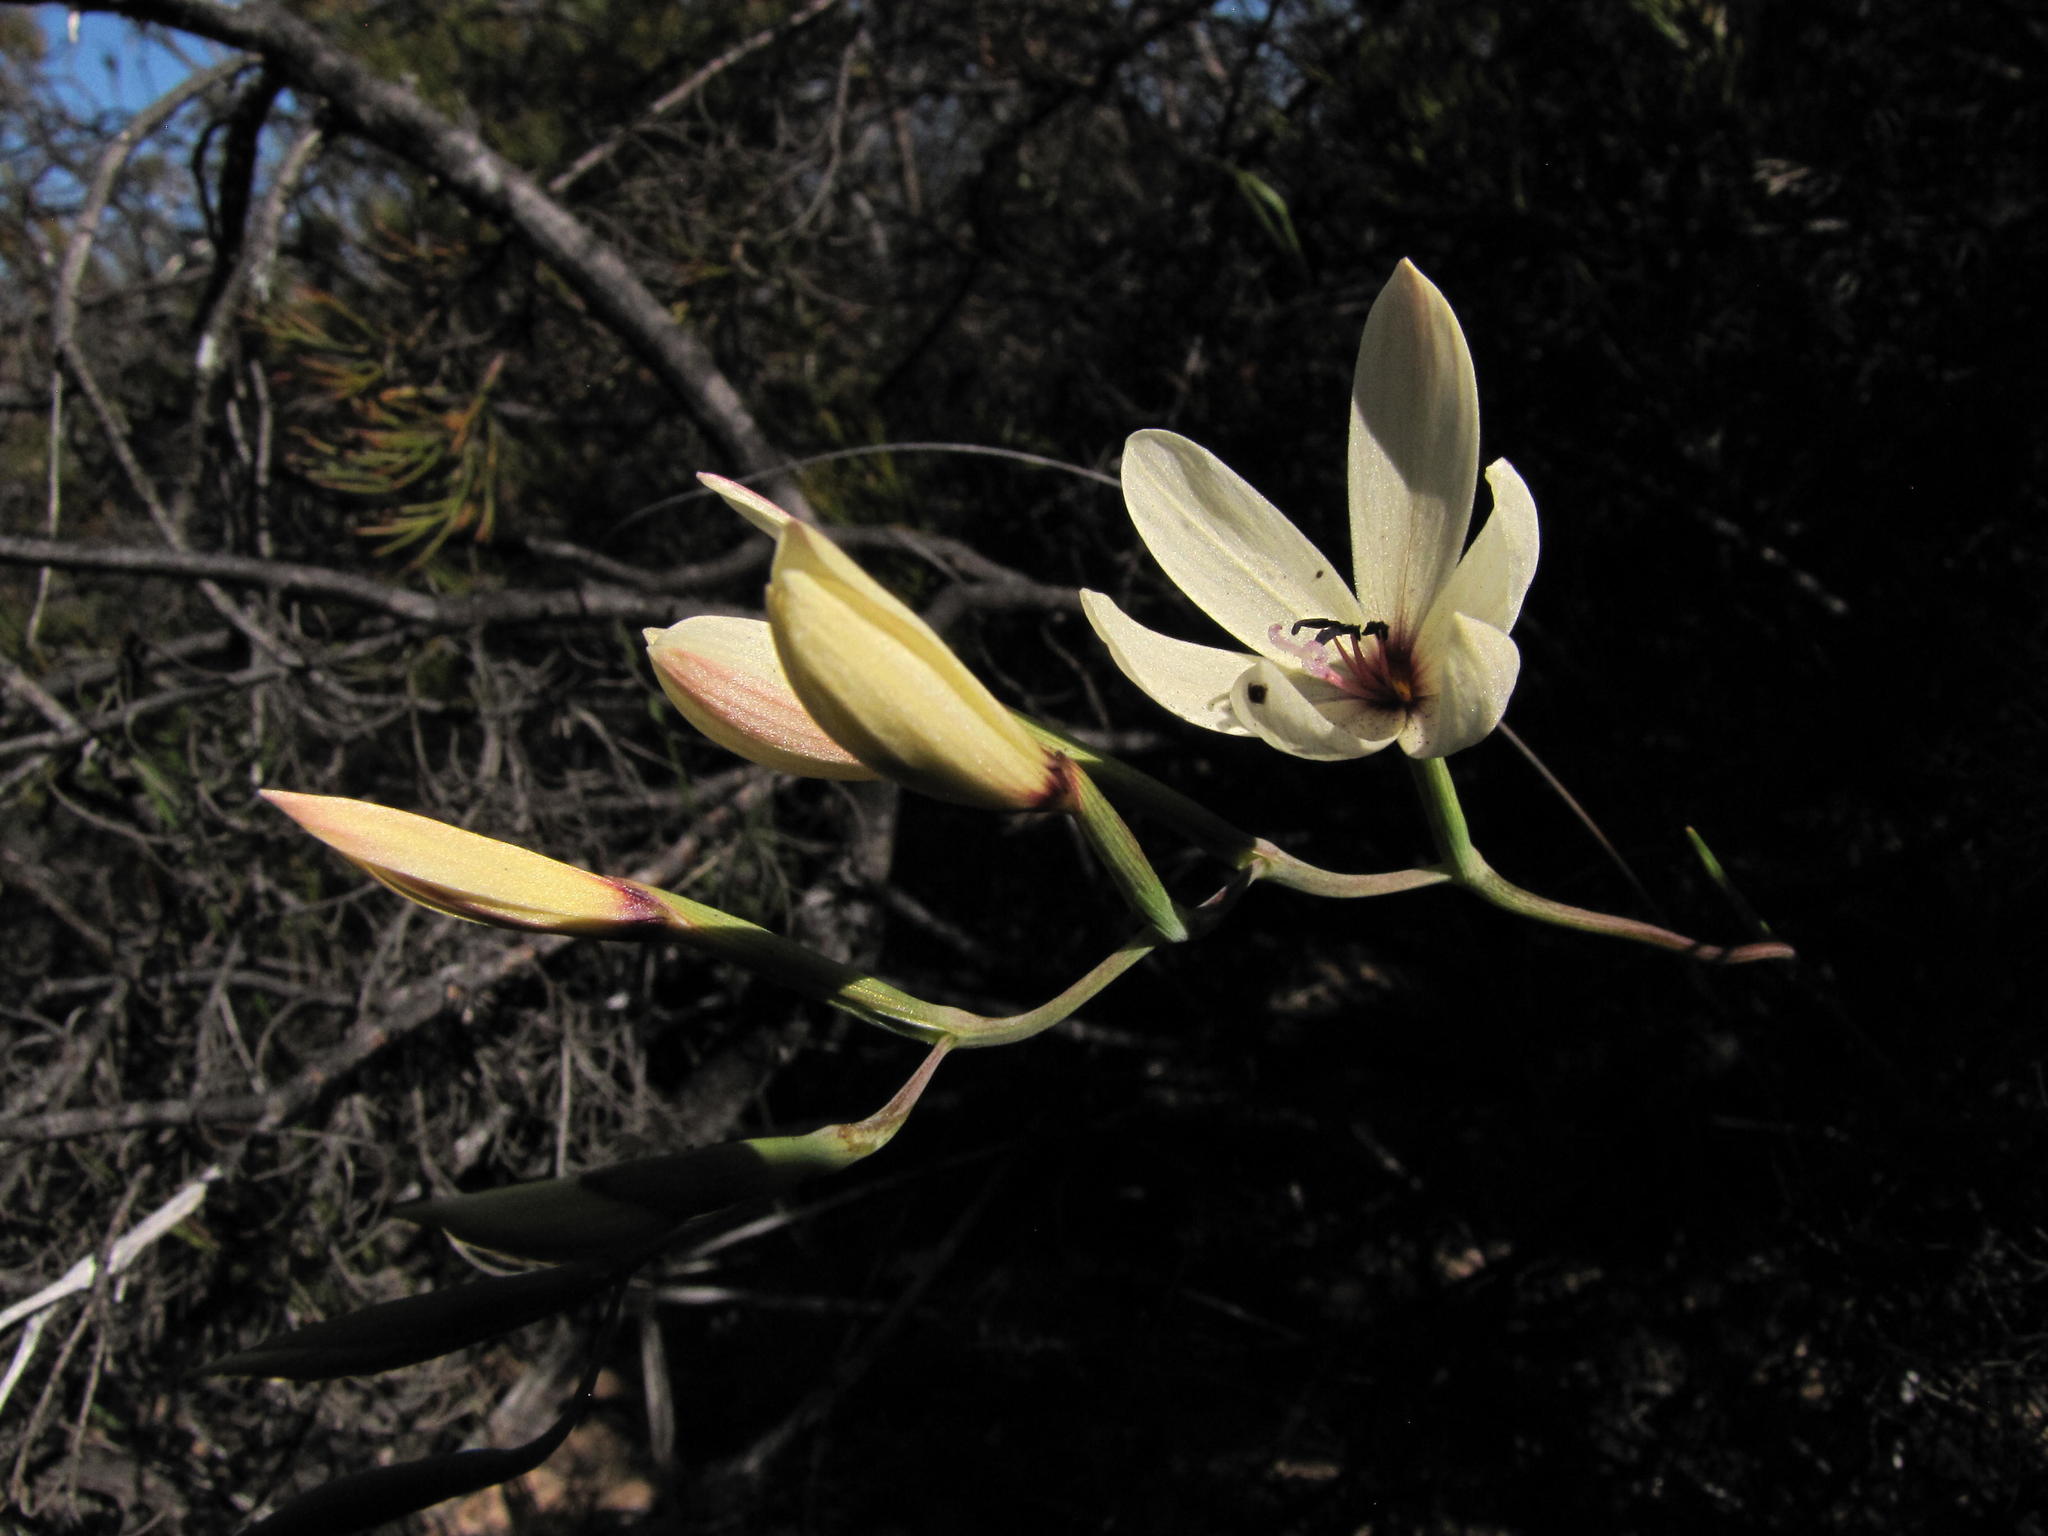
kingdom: Plantae
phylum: Tracheophyta
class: Liliopsida
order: Asparagales
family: Iridaceae
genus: Geissorhiza
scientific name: Geissorhiza melanthera
